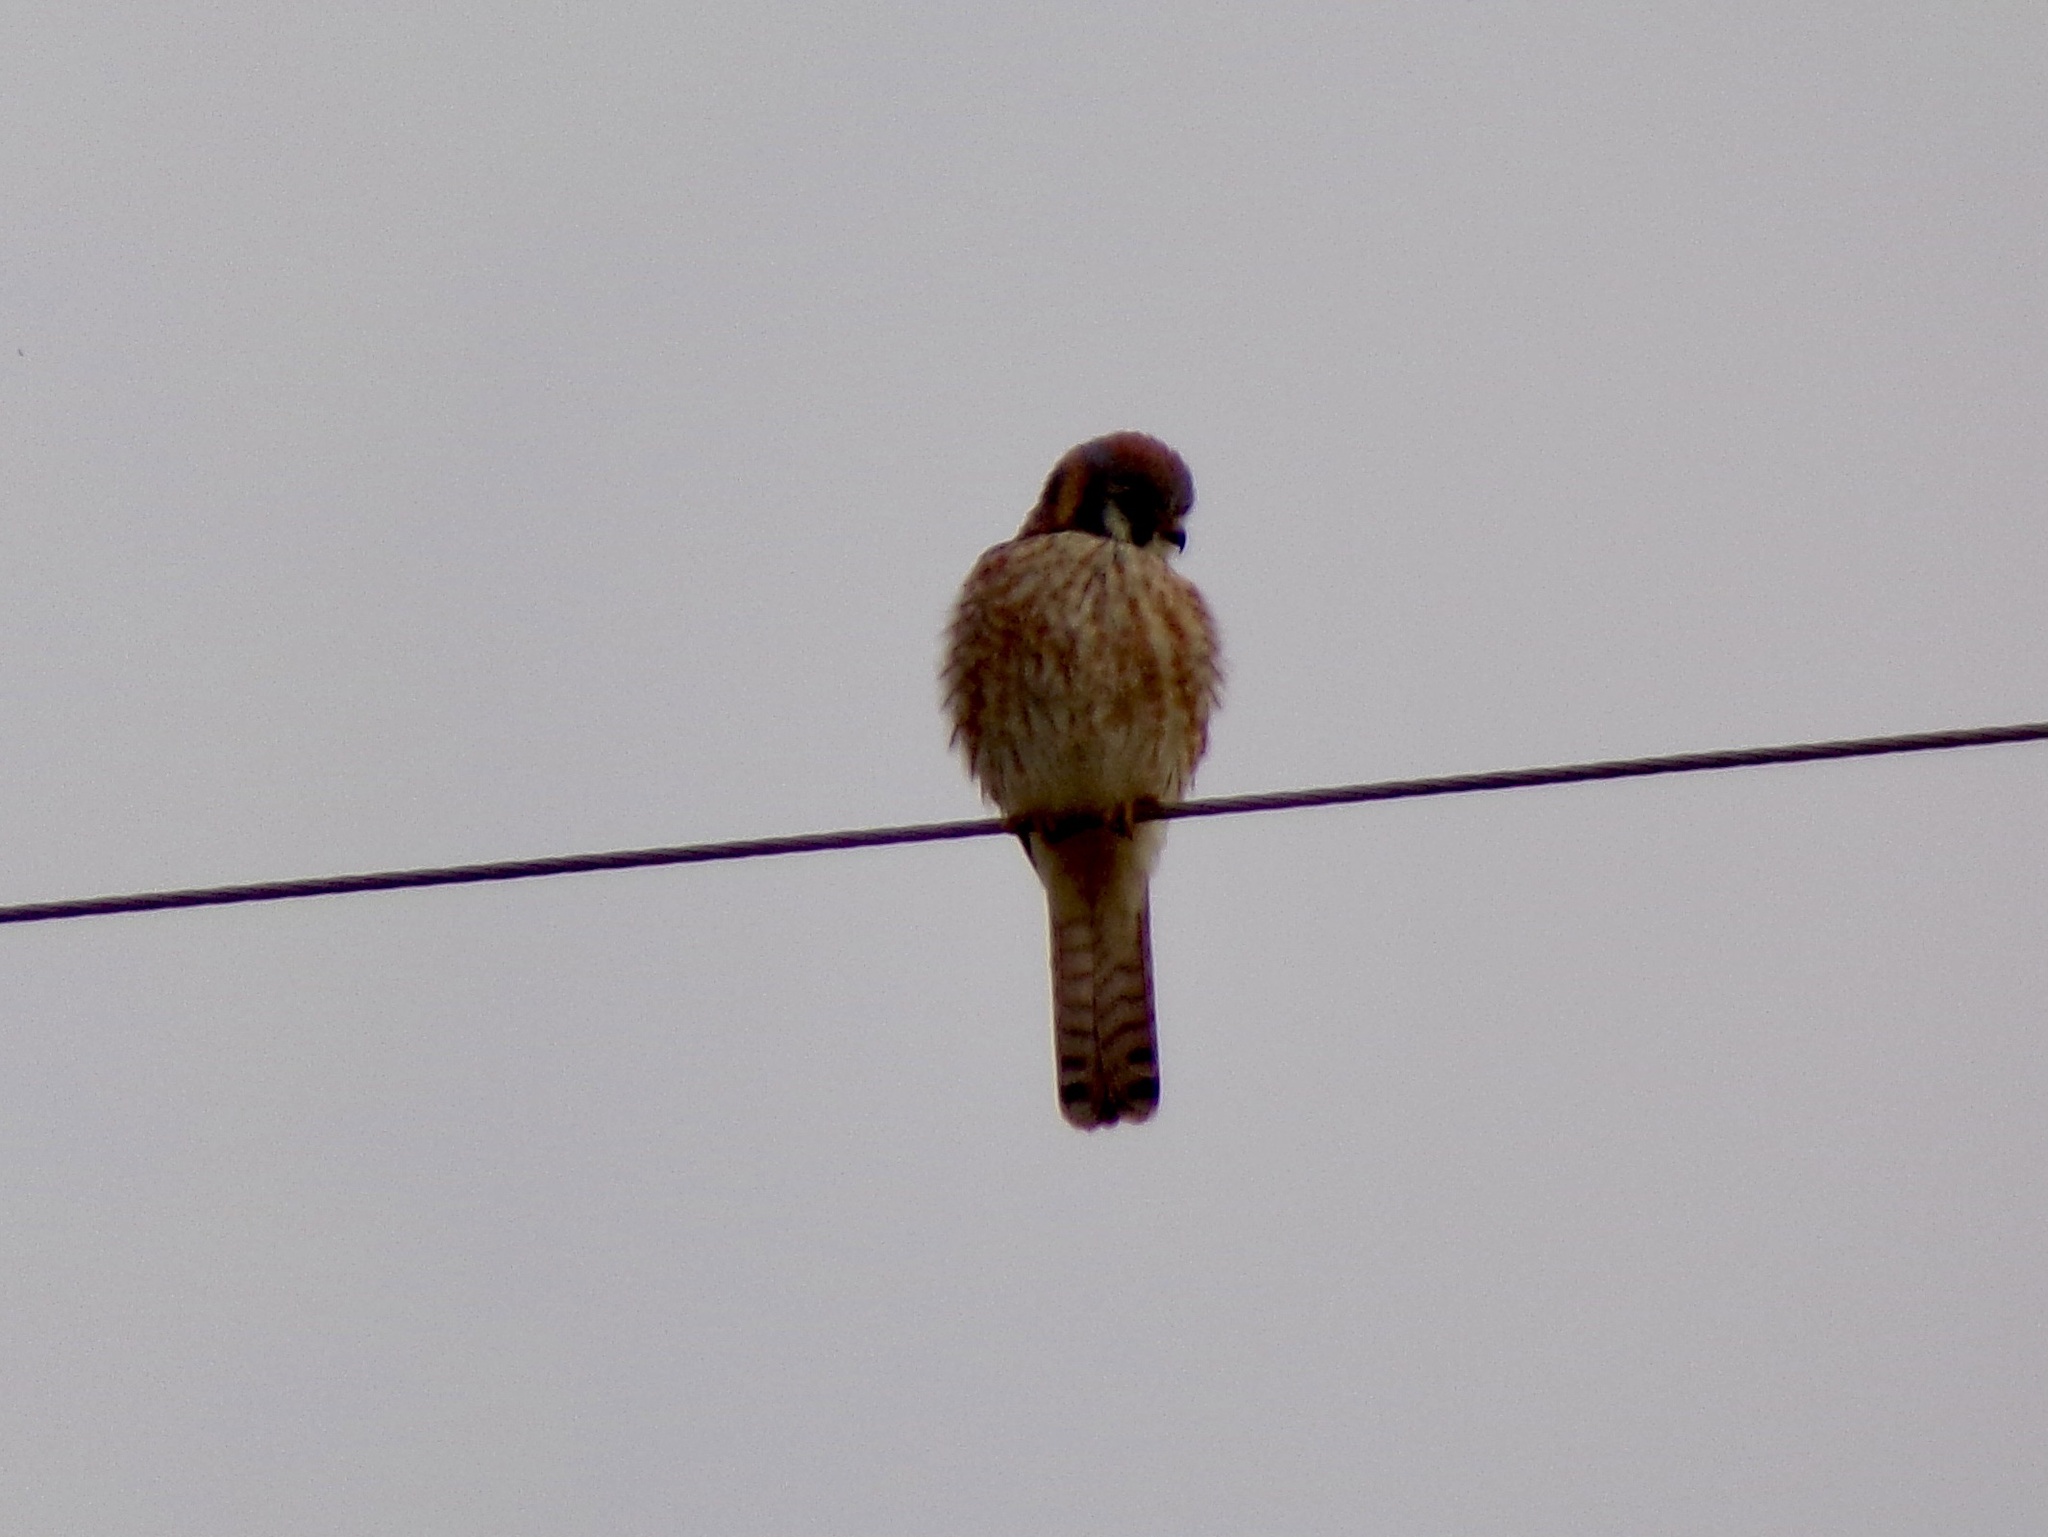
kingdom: Animalia
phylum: Chordata
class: Aves
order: Falconiformes
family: Falconidae
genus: Falco
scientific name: Falco sparverius
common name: American kestrel
